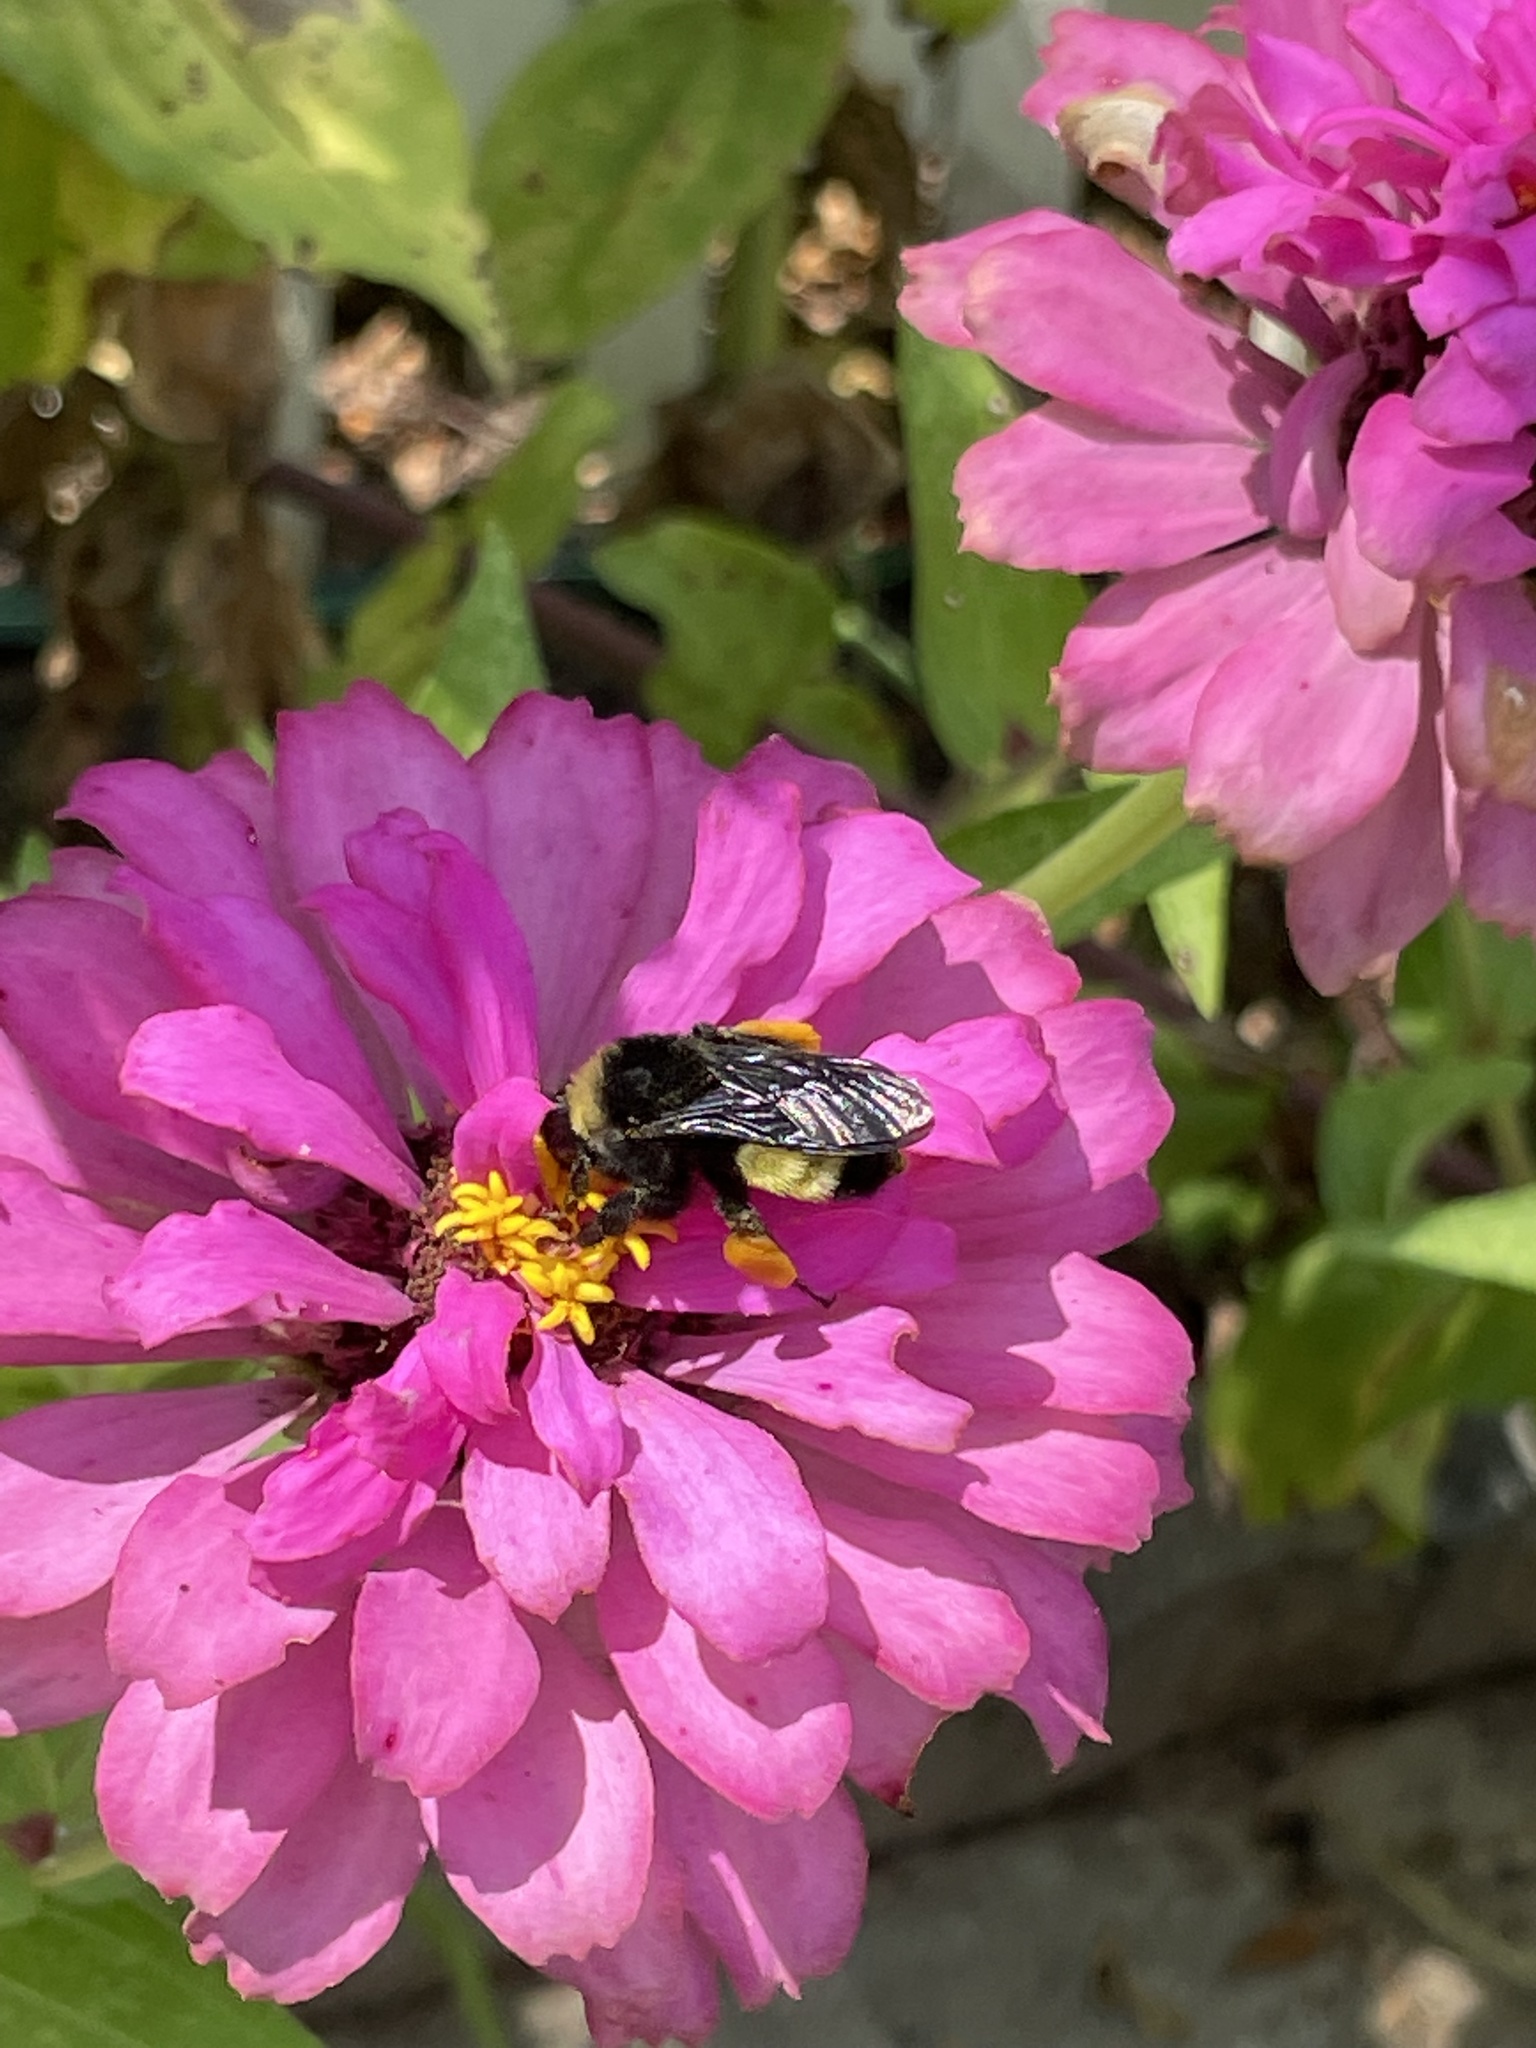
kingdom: Animalia
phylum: Arthropoda
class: Insecta
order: Hymenoptera
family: Apidae
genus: Bombus
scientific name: Bombus pensylvanicus
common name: Bumble bee
